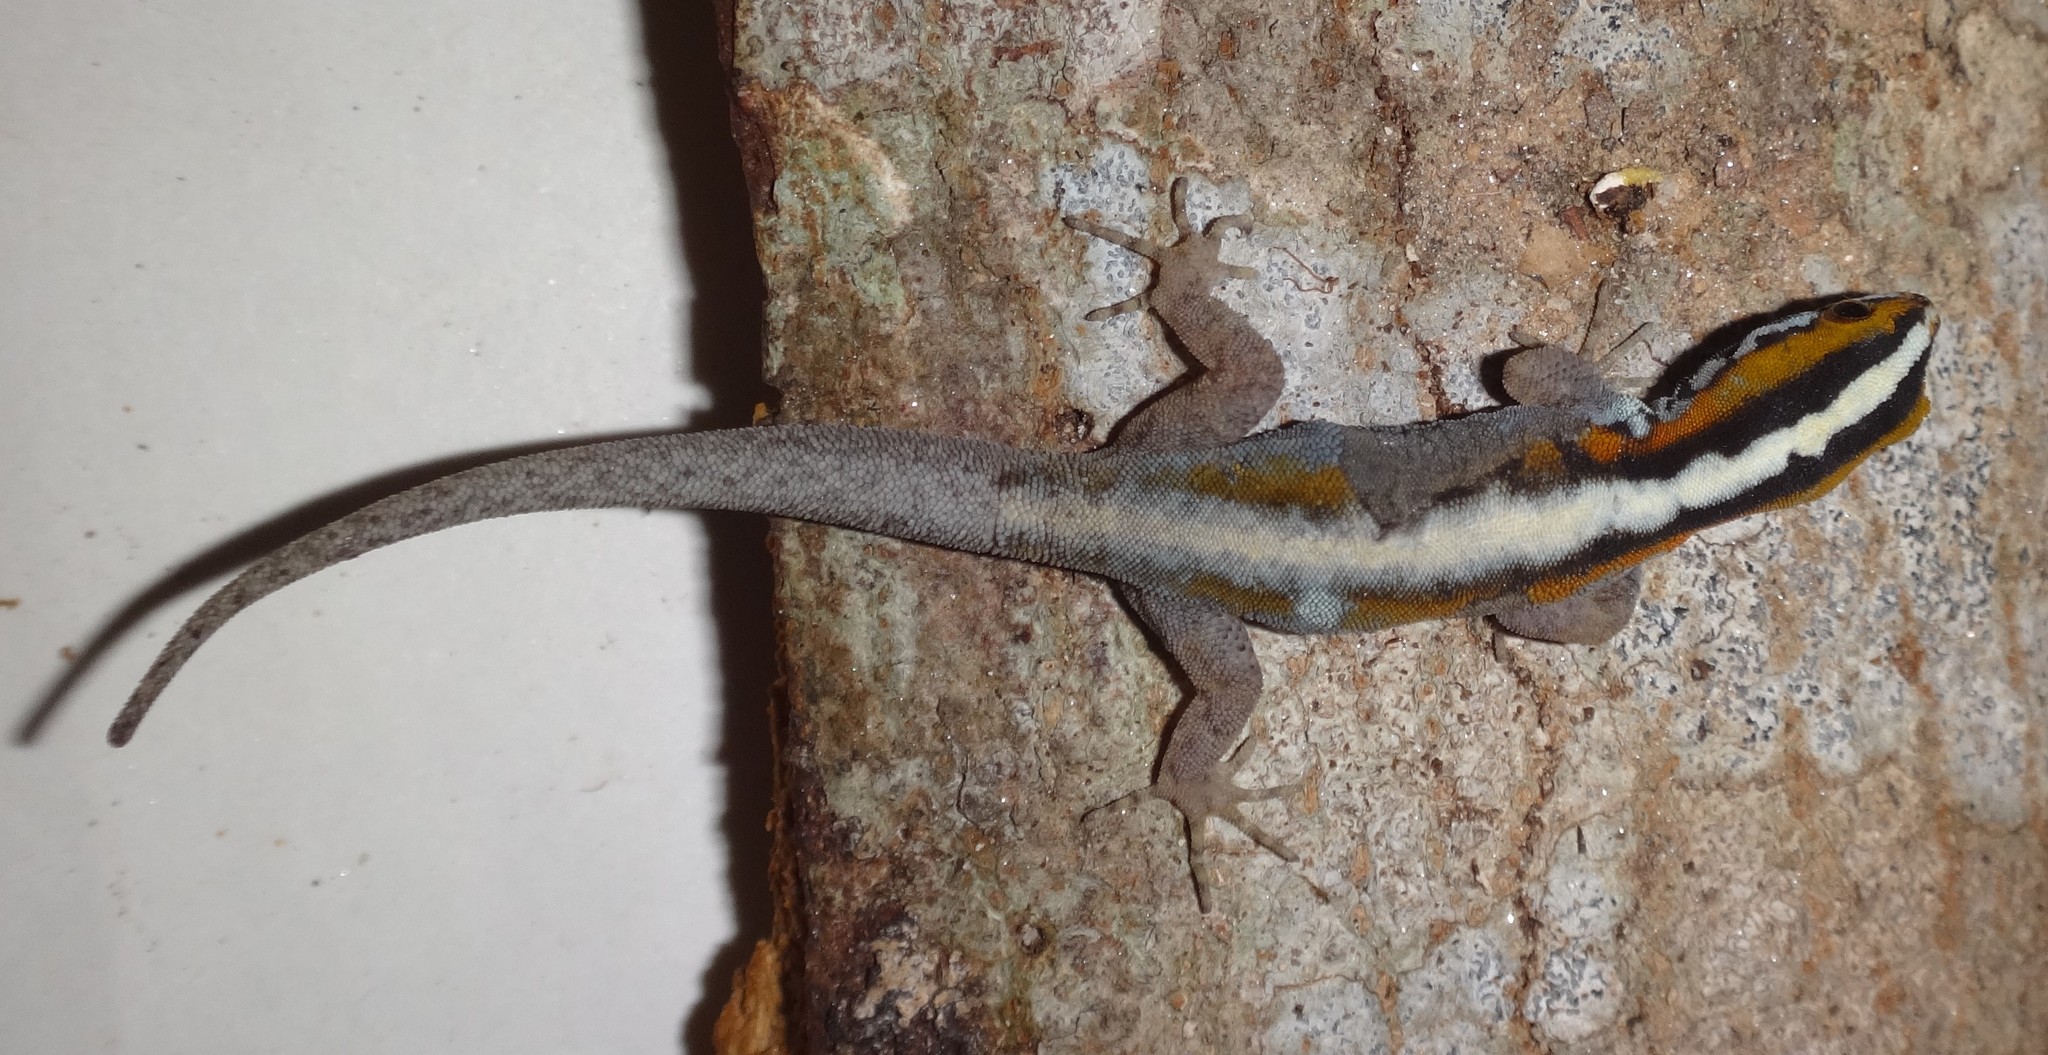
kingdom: Animalia
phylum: Chordata
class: Squamata
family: Sphaerodactylidae
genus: Gonatodes
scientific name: Gonatodes vittatus
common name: Wiegmann's striped gecko
